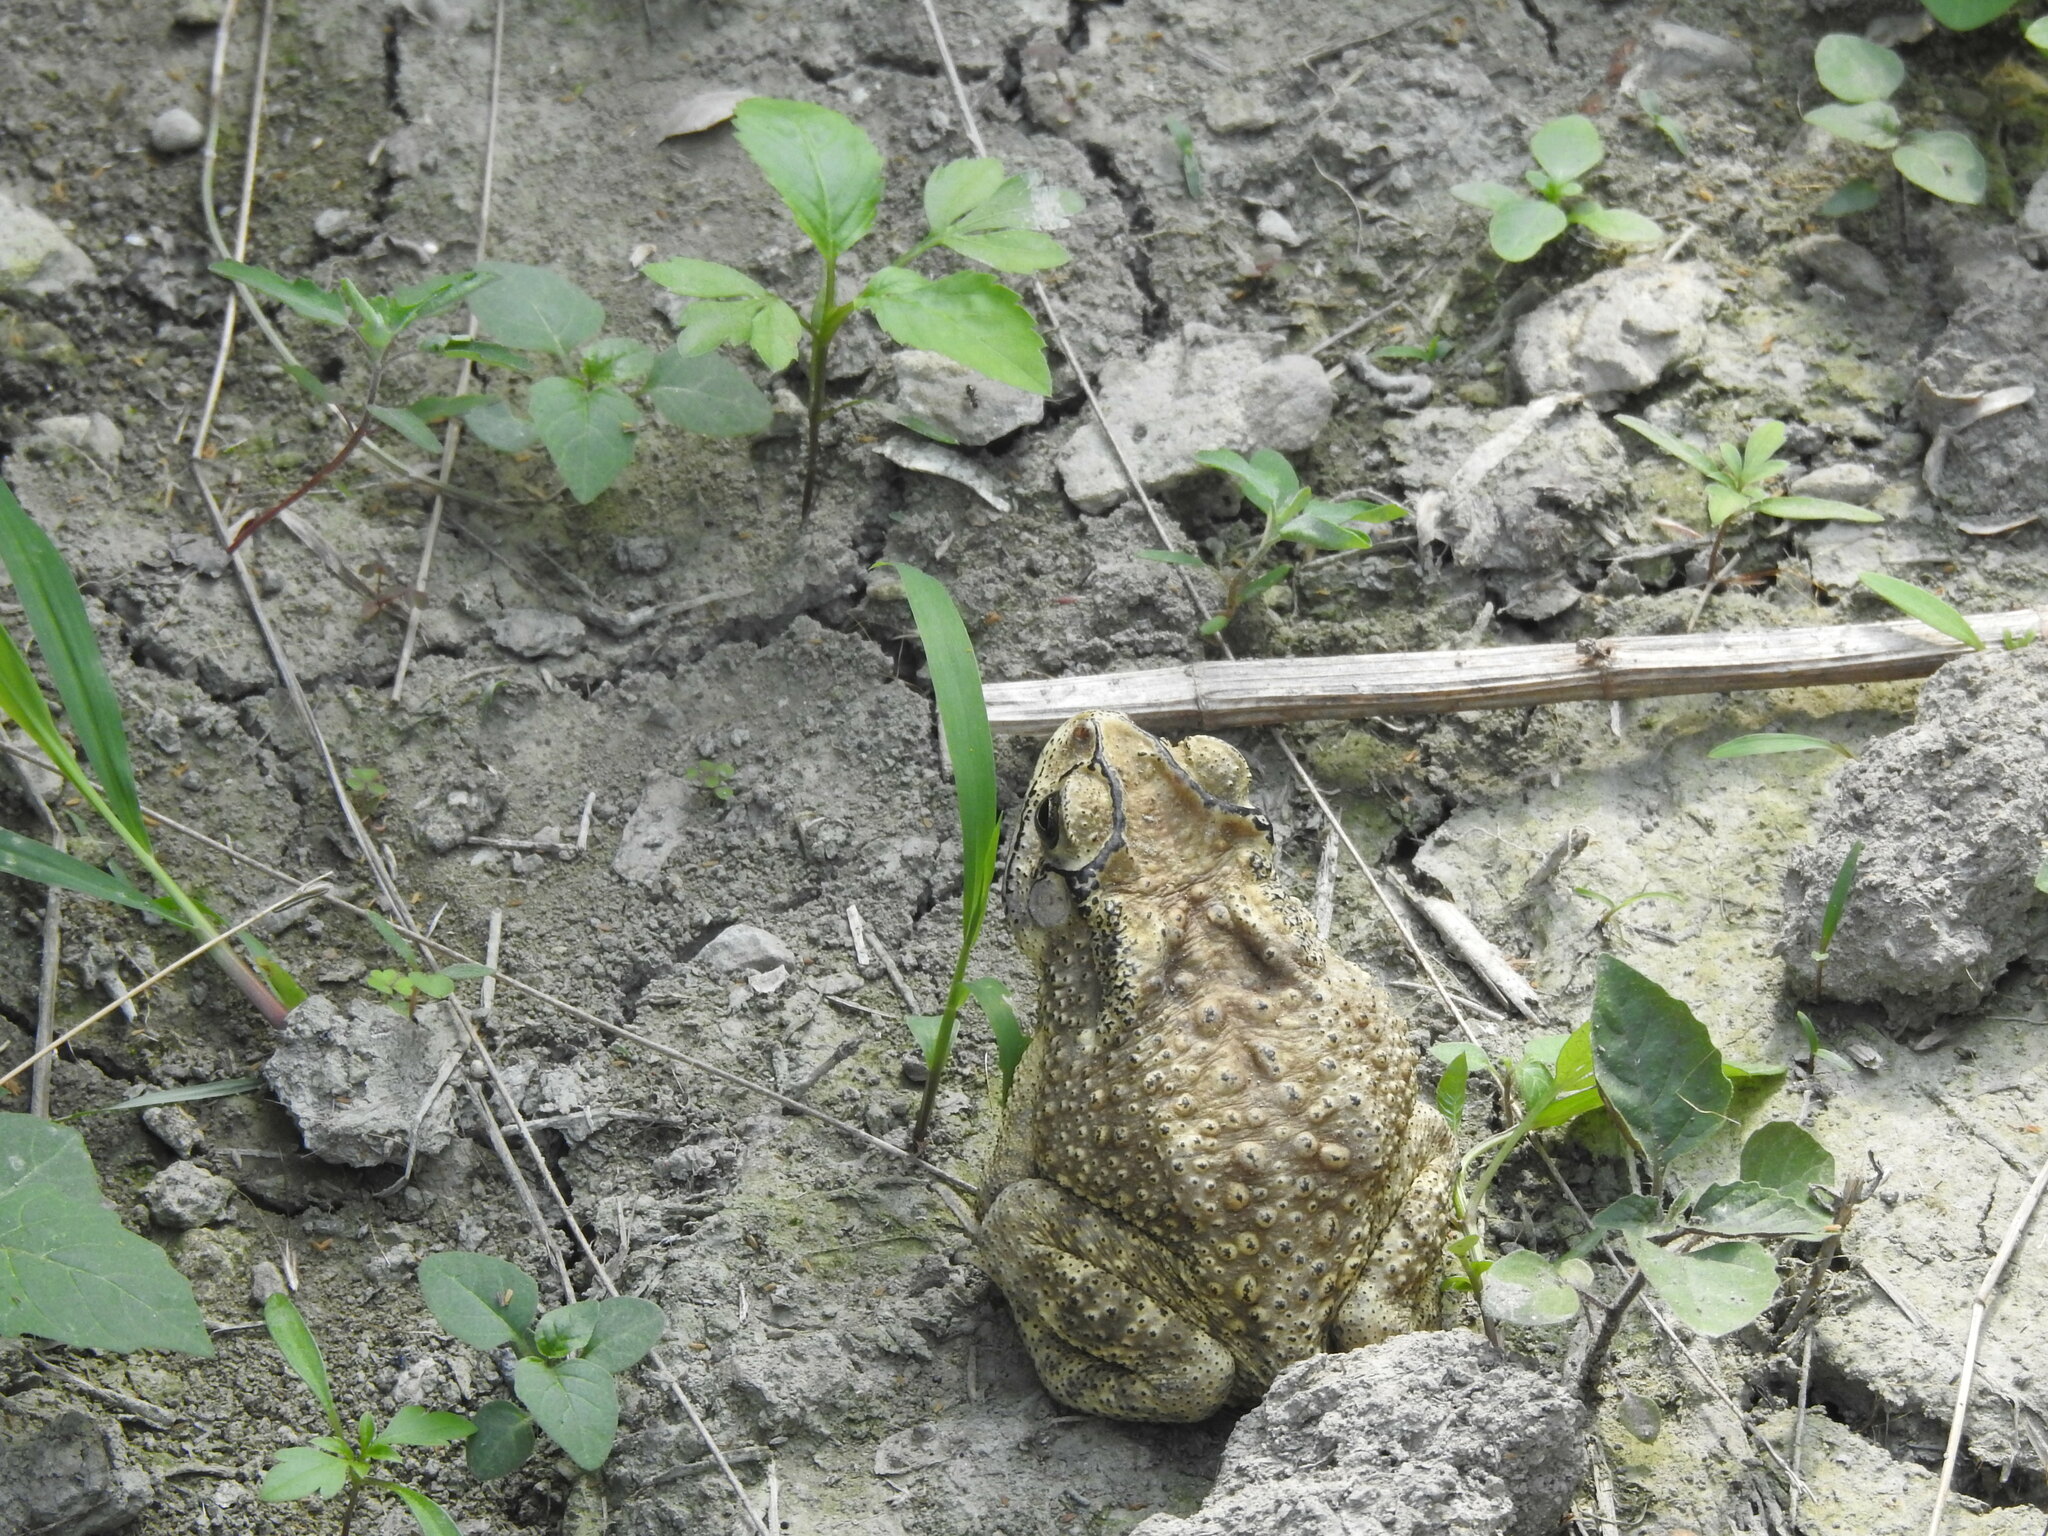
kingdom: Animalia
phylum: Chordata
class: Amphibia
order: Anura
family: Bufonidae
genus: Duttaphrynus
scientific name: Duttaphrynus melanostictus
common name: Common sunda toad
